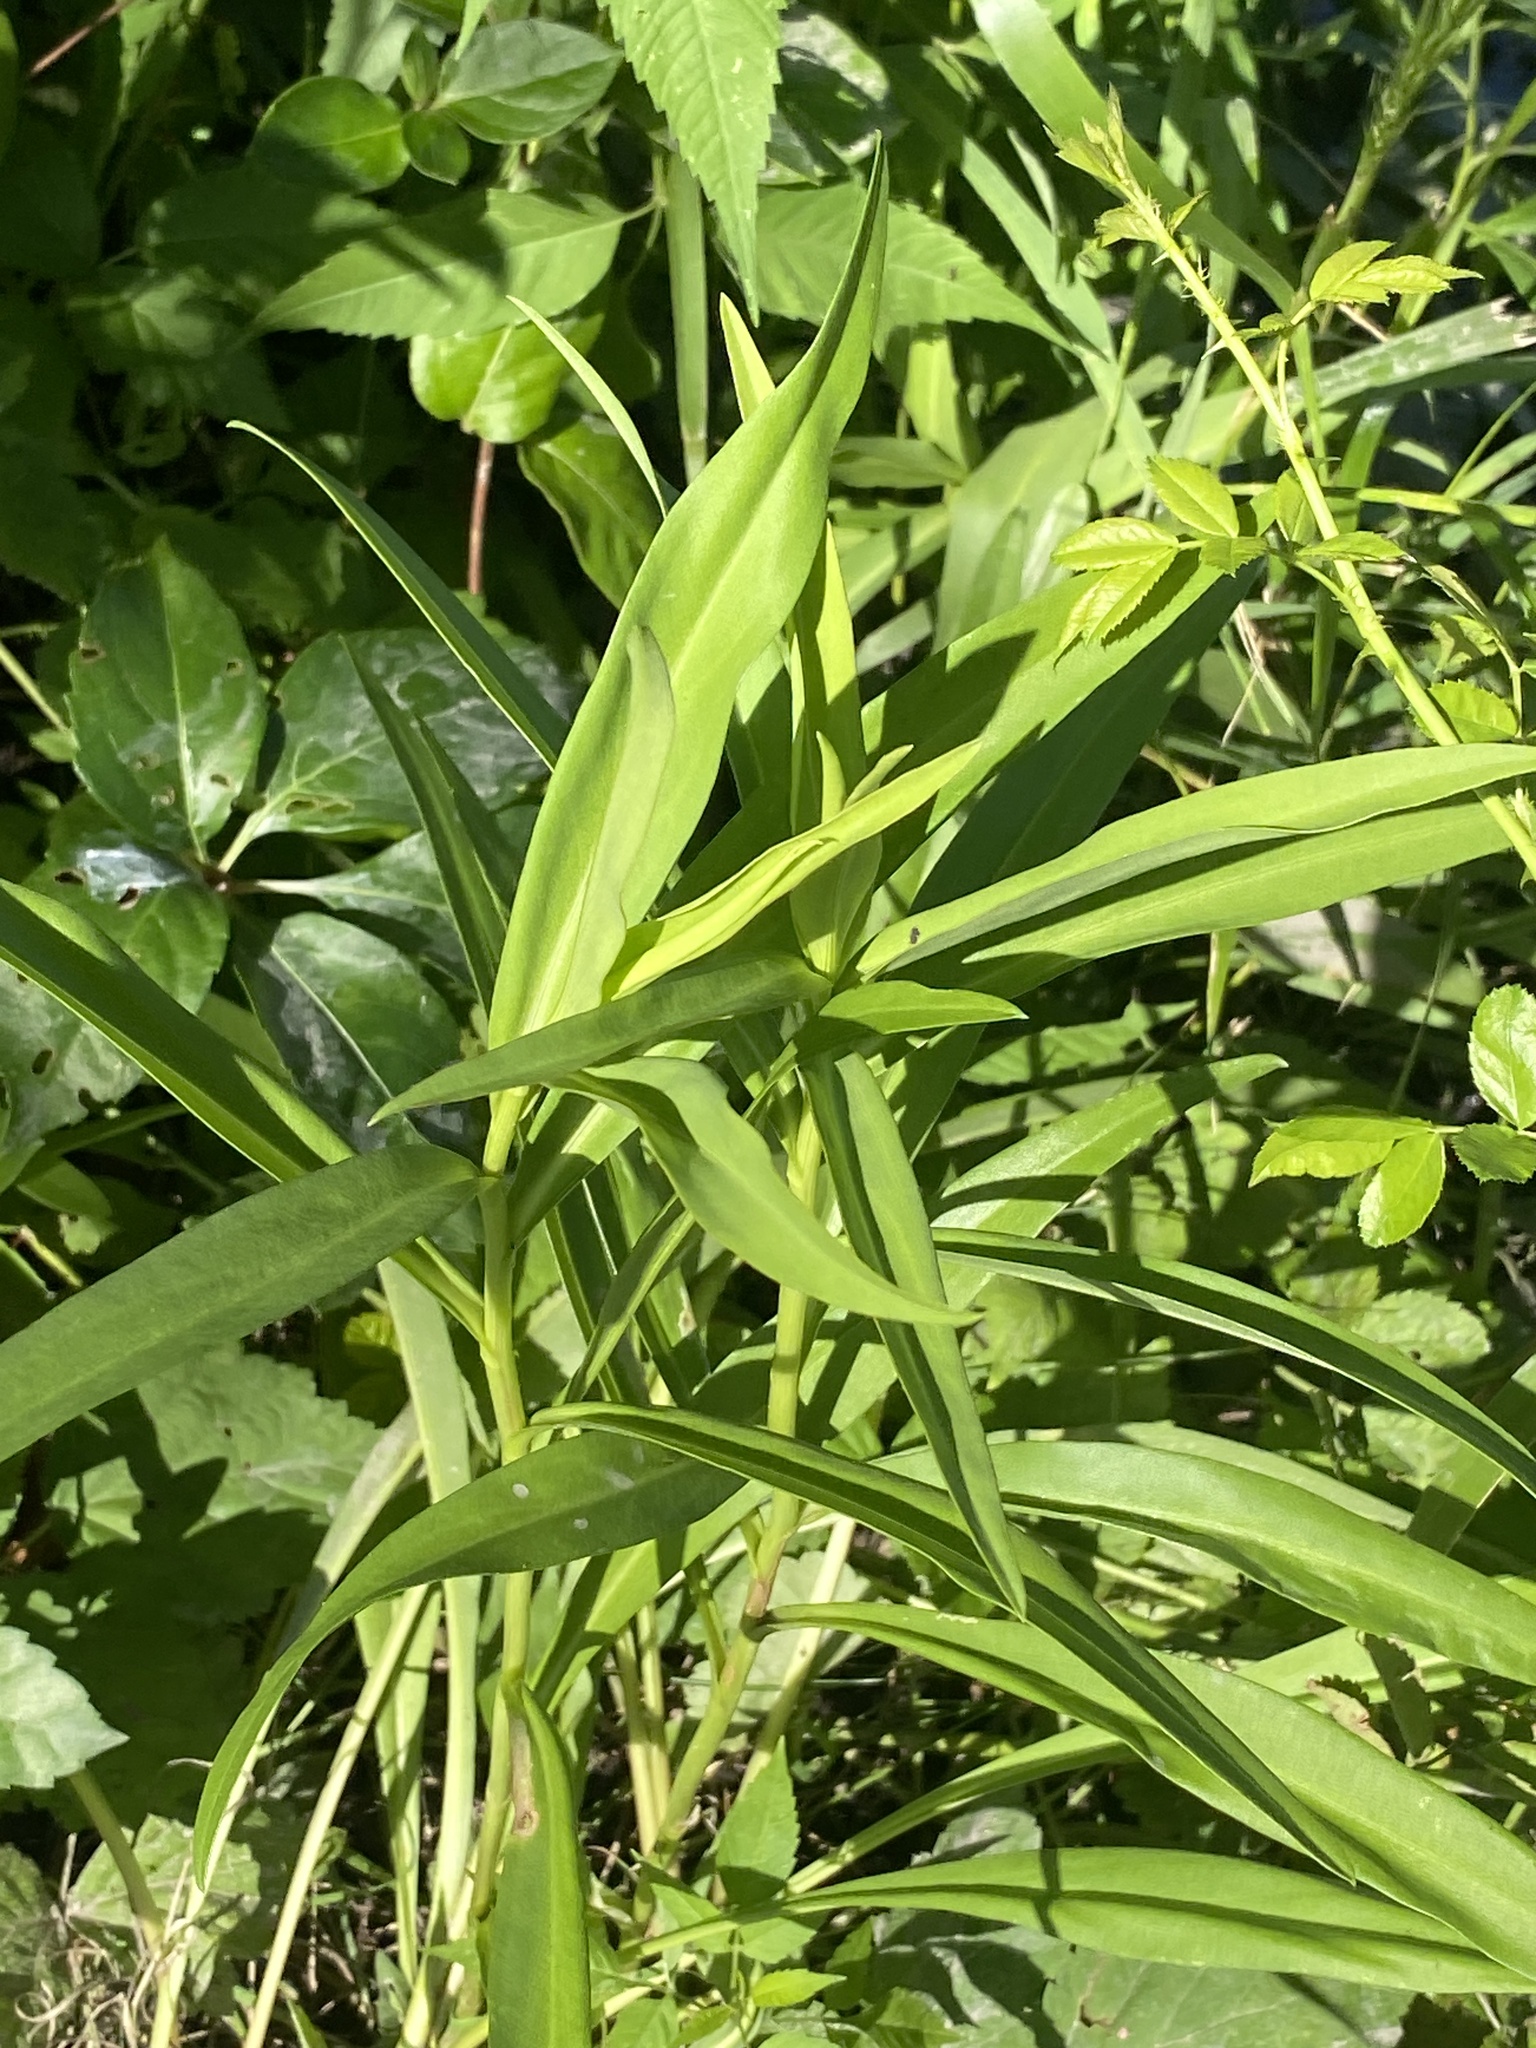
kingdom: Plantae
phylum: Tracheophyta
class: Magnoliopsida
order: Asterales
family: Asteraceae
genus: Solidago
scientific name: Solidago sempervirens
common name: Salt-marsh goldenrod
